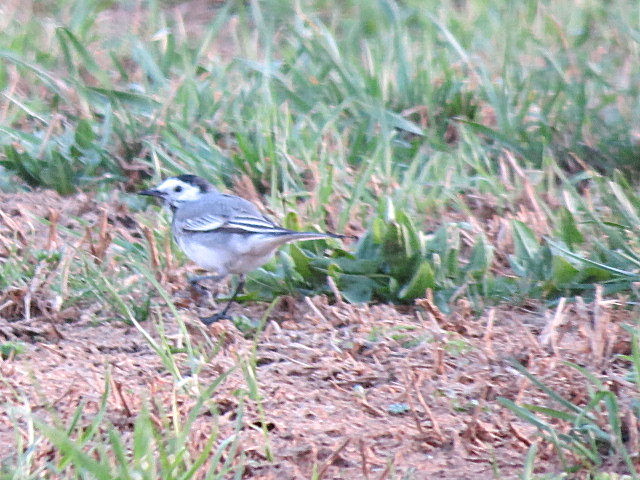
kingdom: Animalia
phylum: Chordata
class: Aves
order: Passeriformes
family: Motacillidae
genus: Motacilla
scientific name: Motacilla alba
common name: White wagtail
